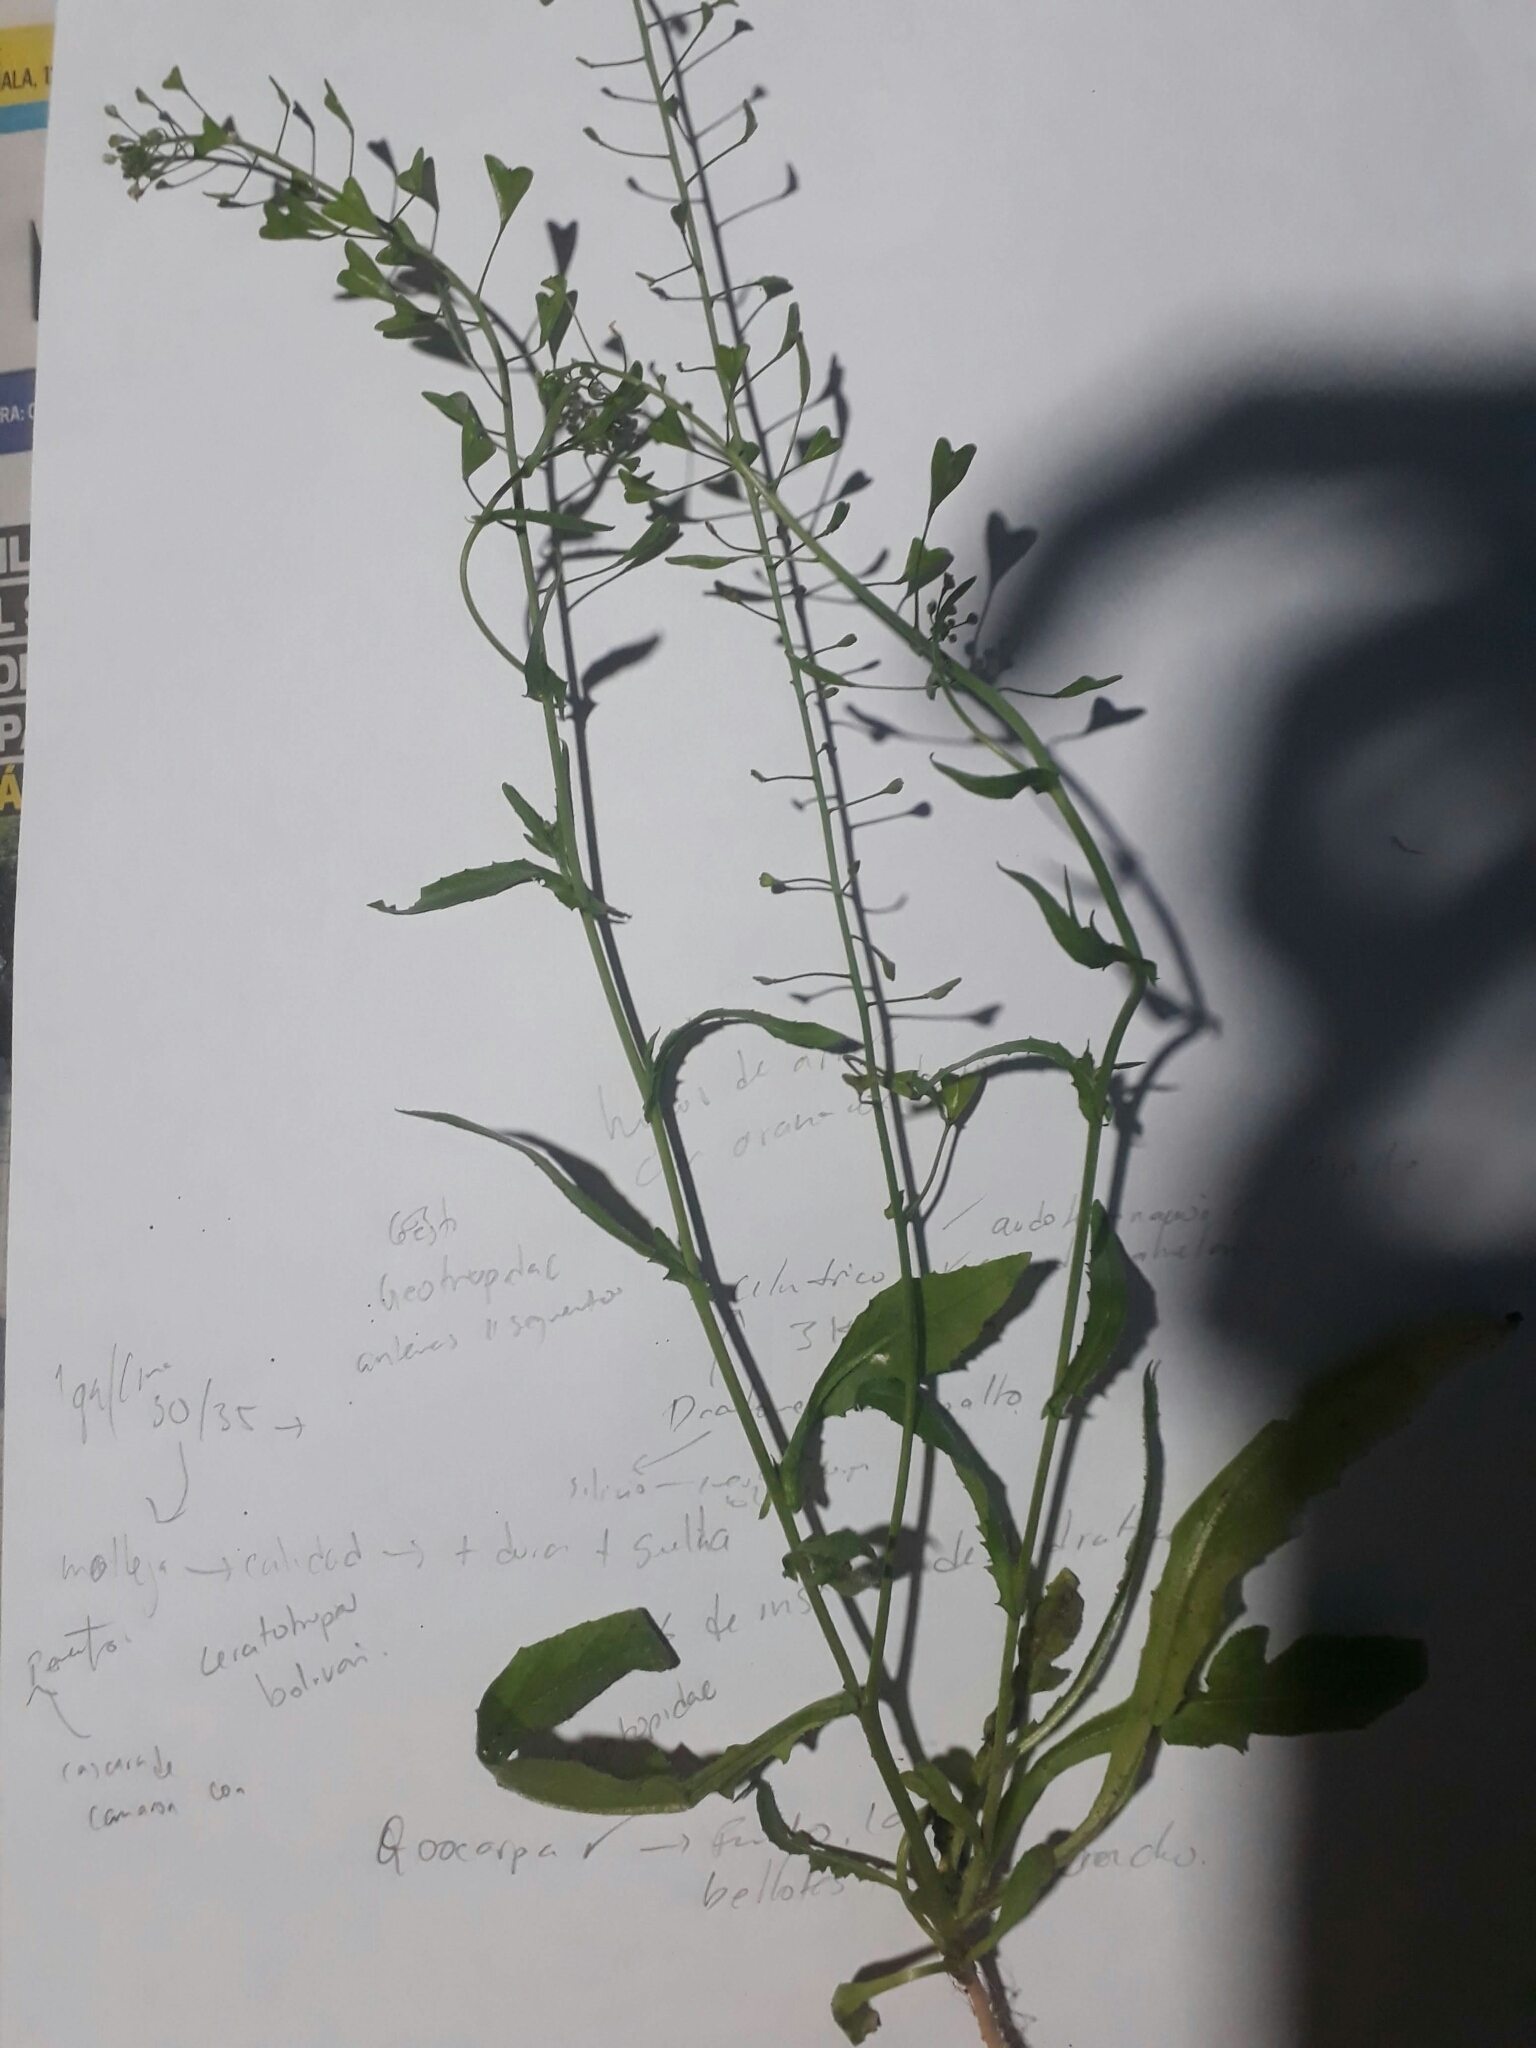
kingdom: Plantae
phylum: Tracheophyta
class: Magnoliopsida
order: Brassicales
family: Brassicaceae
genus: Capsella
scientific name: Capsella bursa-pastoris
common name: Shepherd's purse
